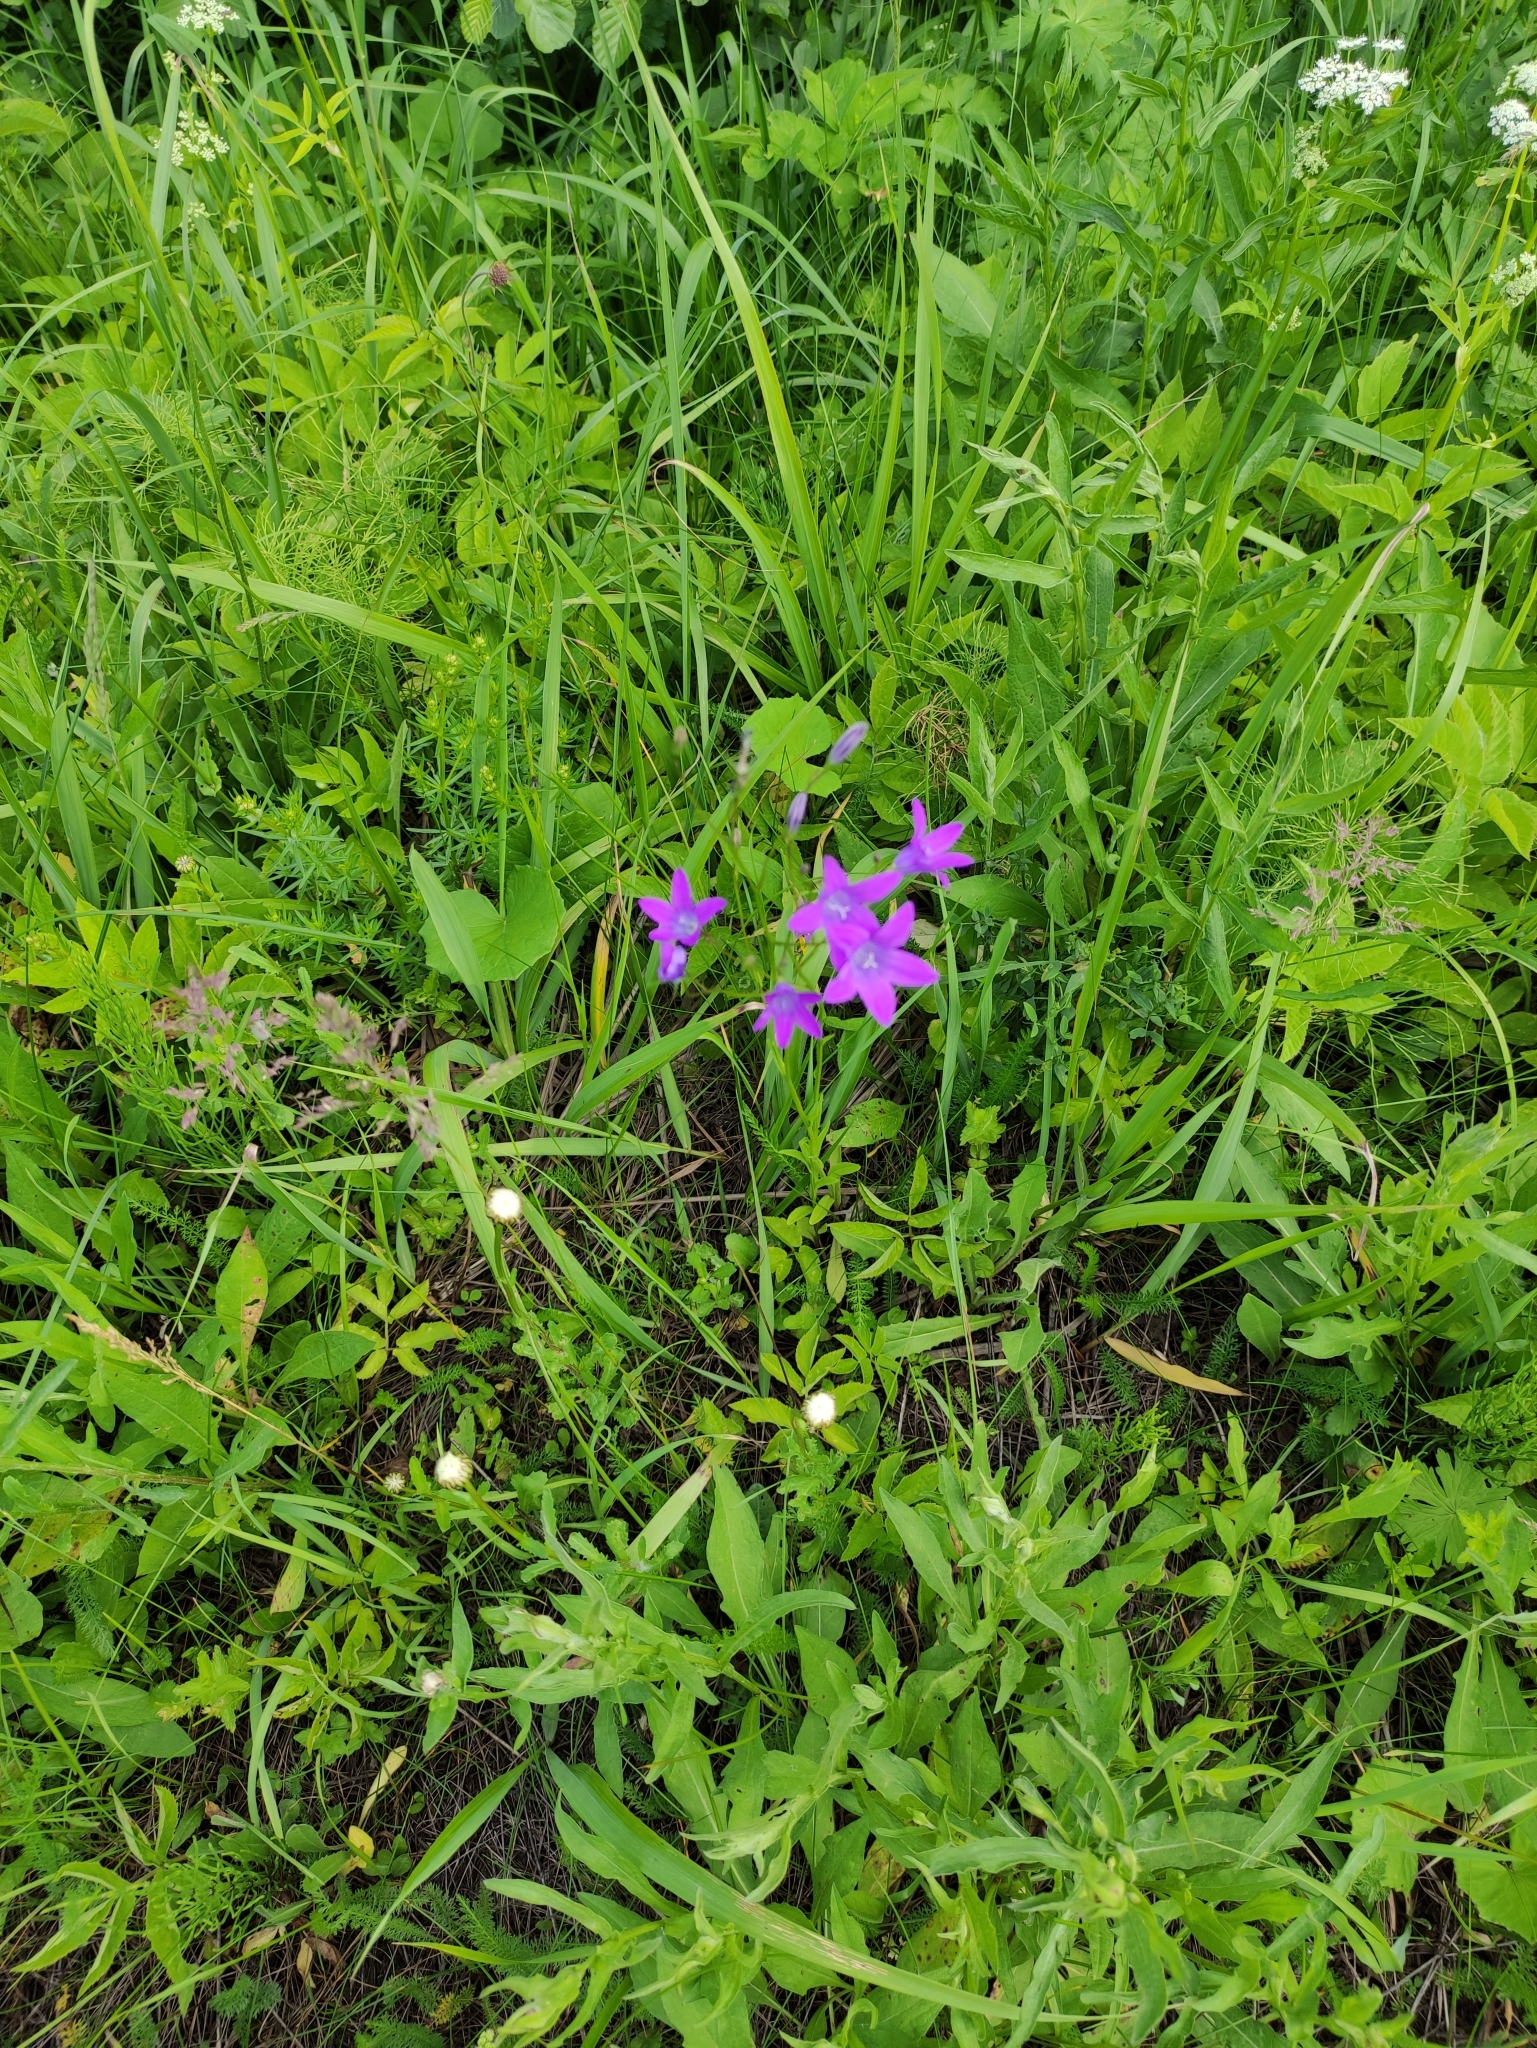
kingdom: Plantae
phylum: Tracheophyta
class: Magnoliopsida
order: Asterales
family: Campanulaceae
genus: Campanula
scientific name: Campanula patula
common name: Spreading bellflower
